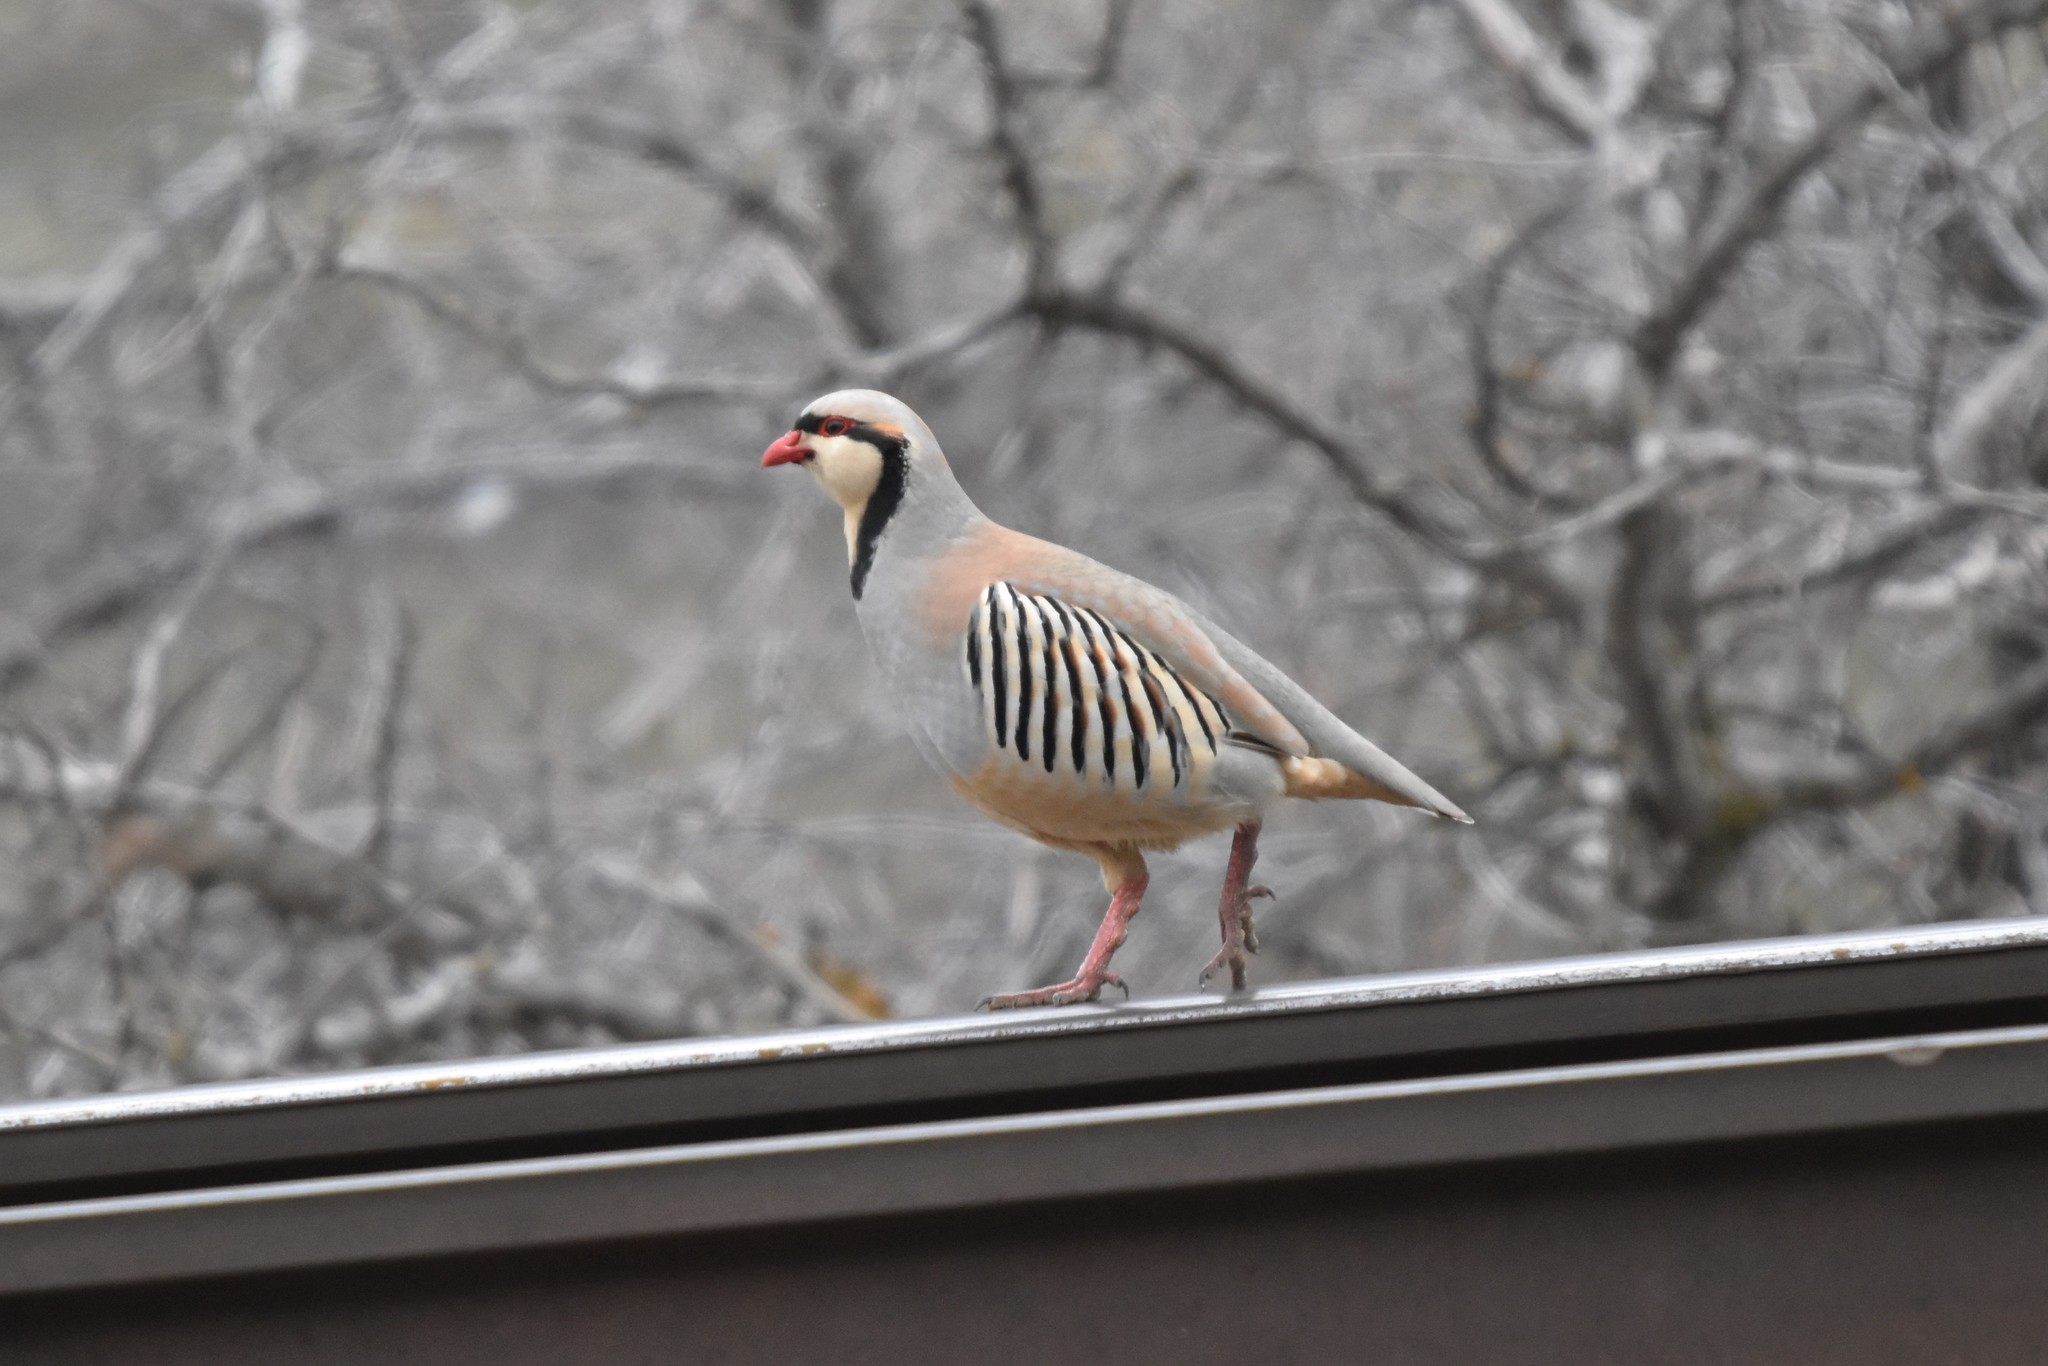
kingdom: Animalia
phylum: Chordata
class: Aves
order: Galliformes
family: Phasianidae
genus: Alectoris
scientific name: Alectoris chukar
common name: Chukar
